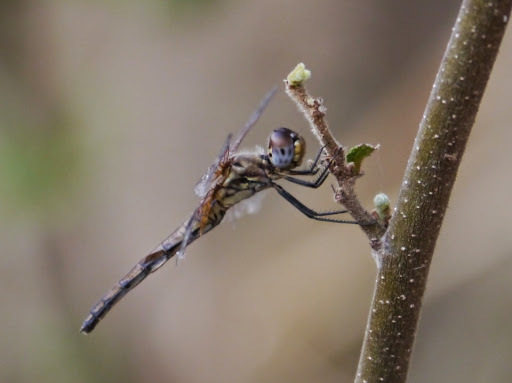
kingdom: Animalia
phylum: Arthropoda
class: Insecta
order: Odonata
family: Libellulidae
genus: Trithemis
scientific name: Trithemis pluvialis
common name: Russet dropwing
